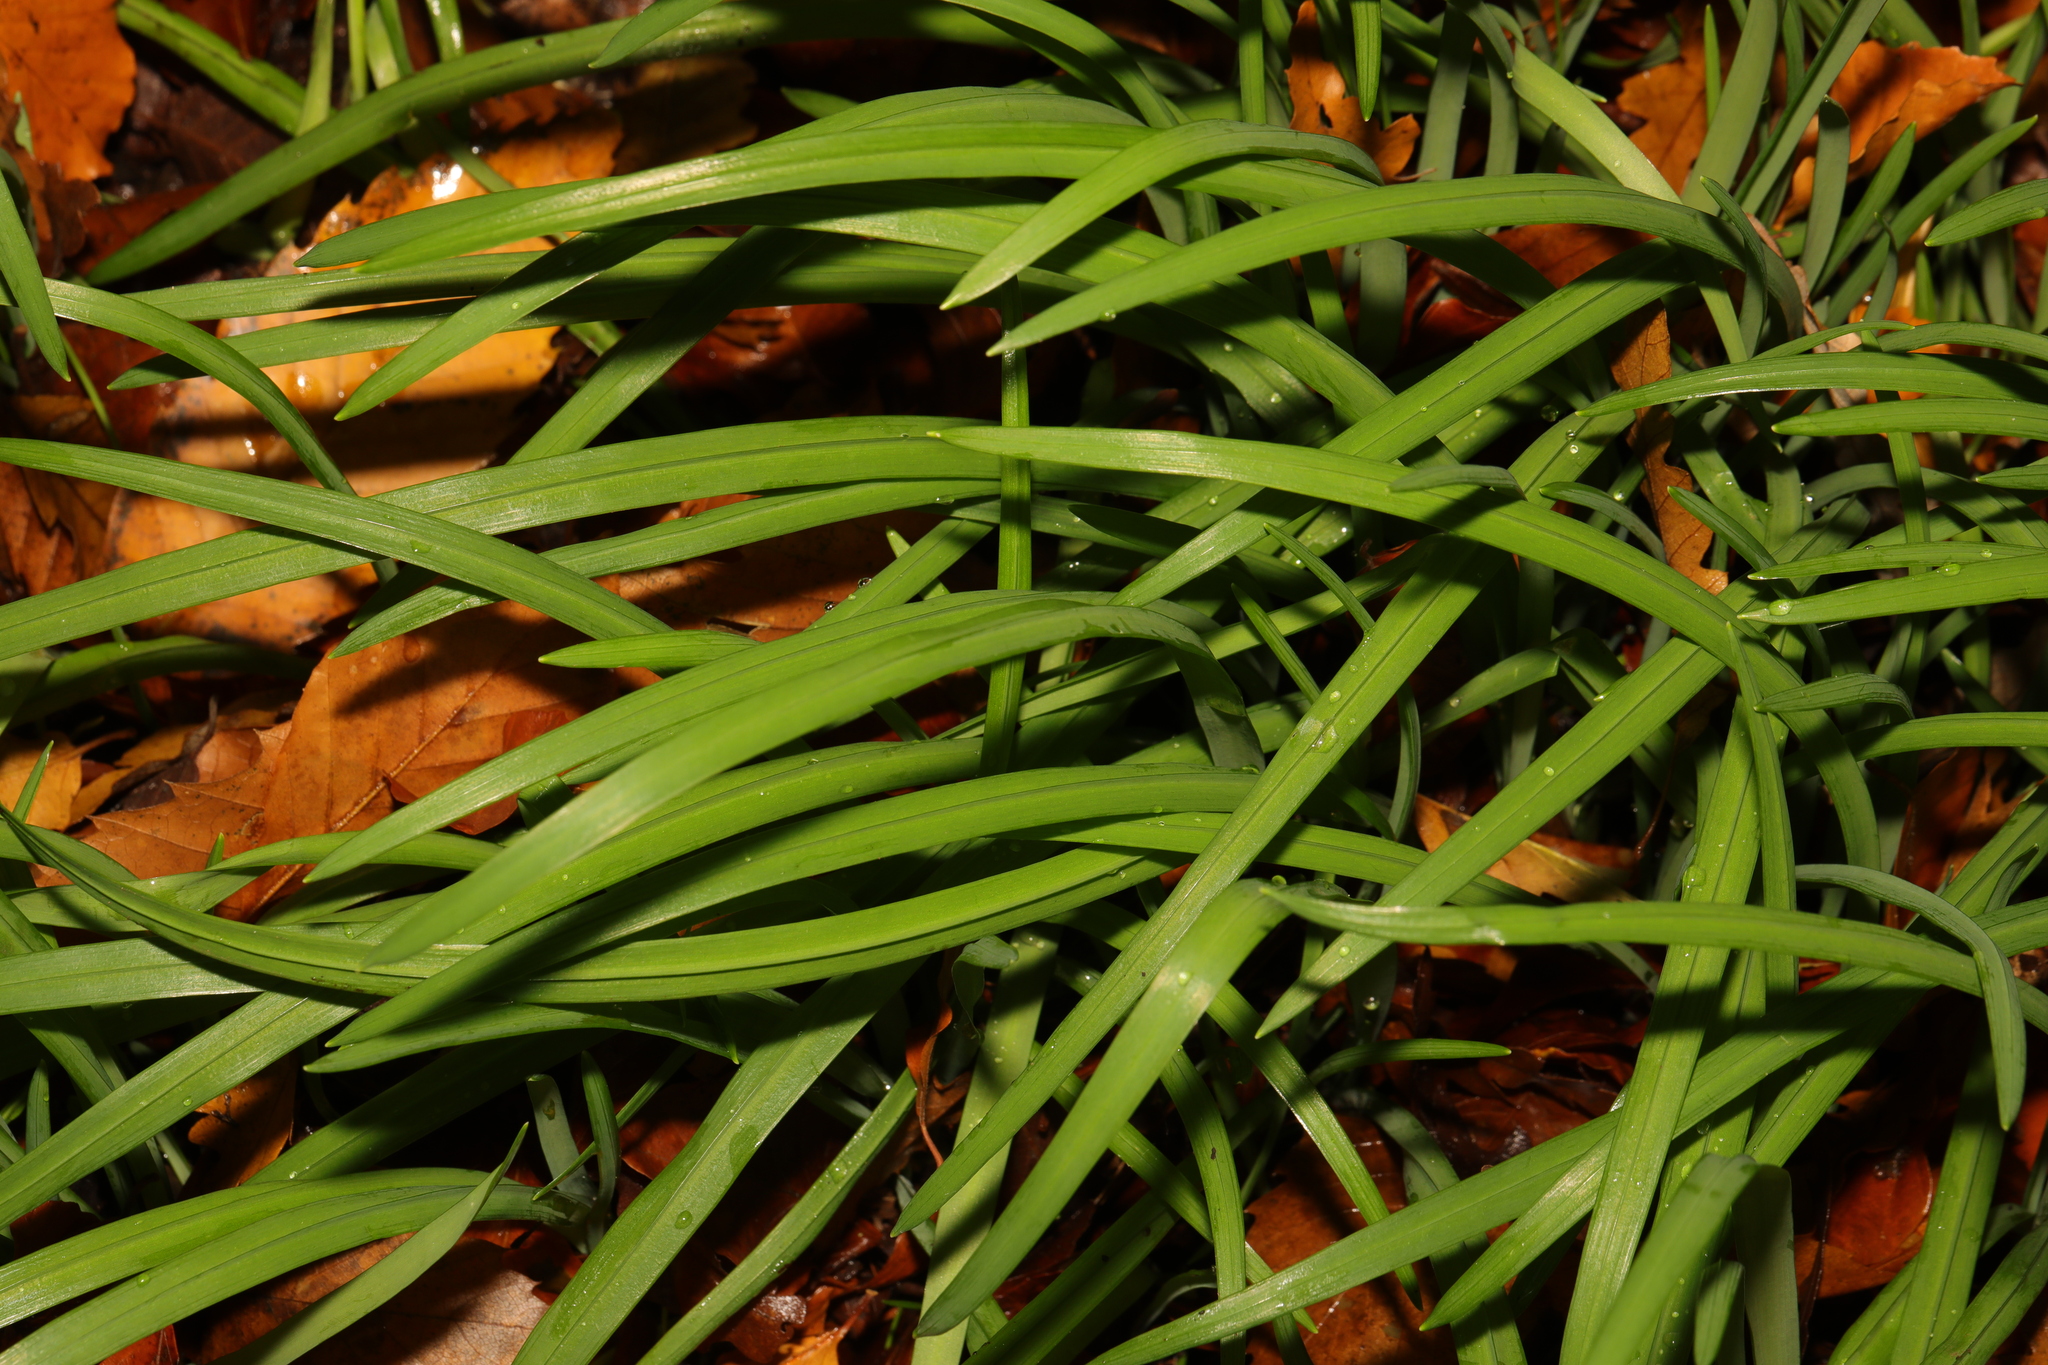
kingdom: Plantae
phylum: Tracheophyta
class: Liliopsida
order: Asparagales
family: Amaryllidaceae
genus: Allium
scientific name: Allium triquetrum
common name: Three-cornered garlic
